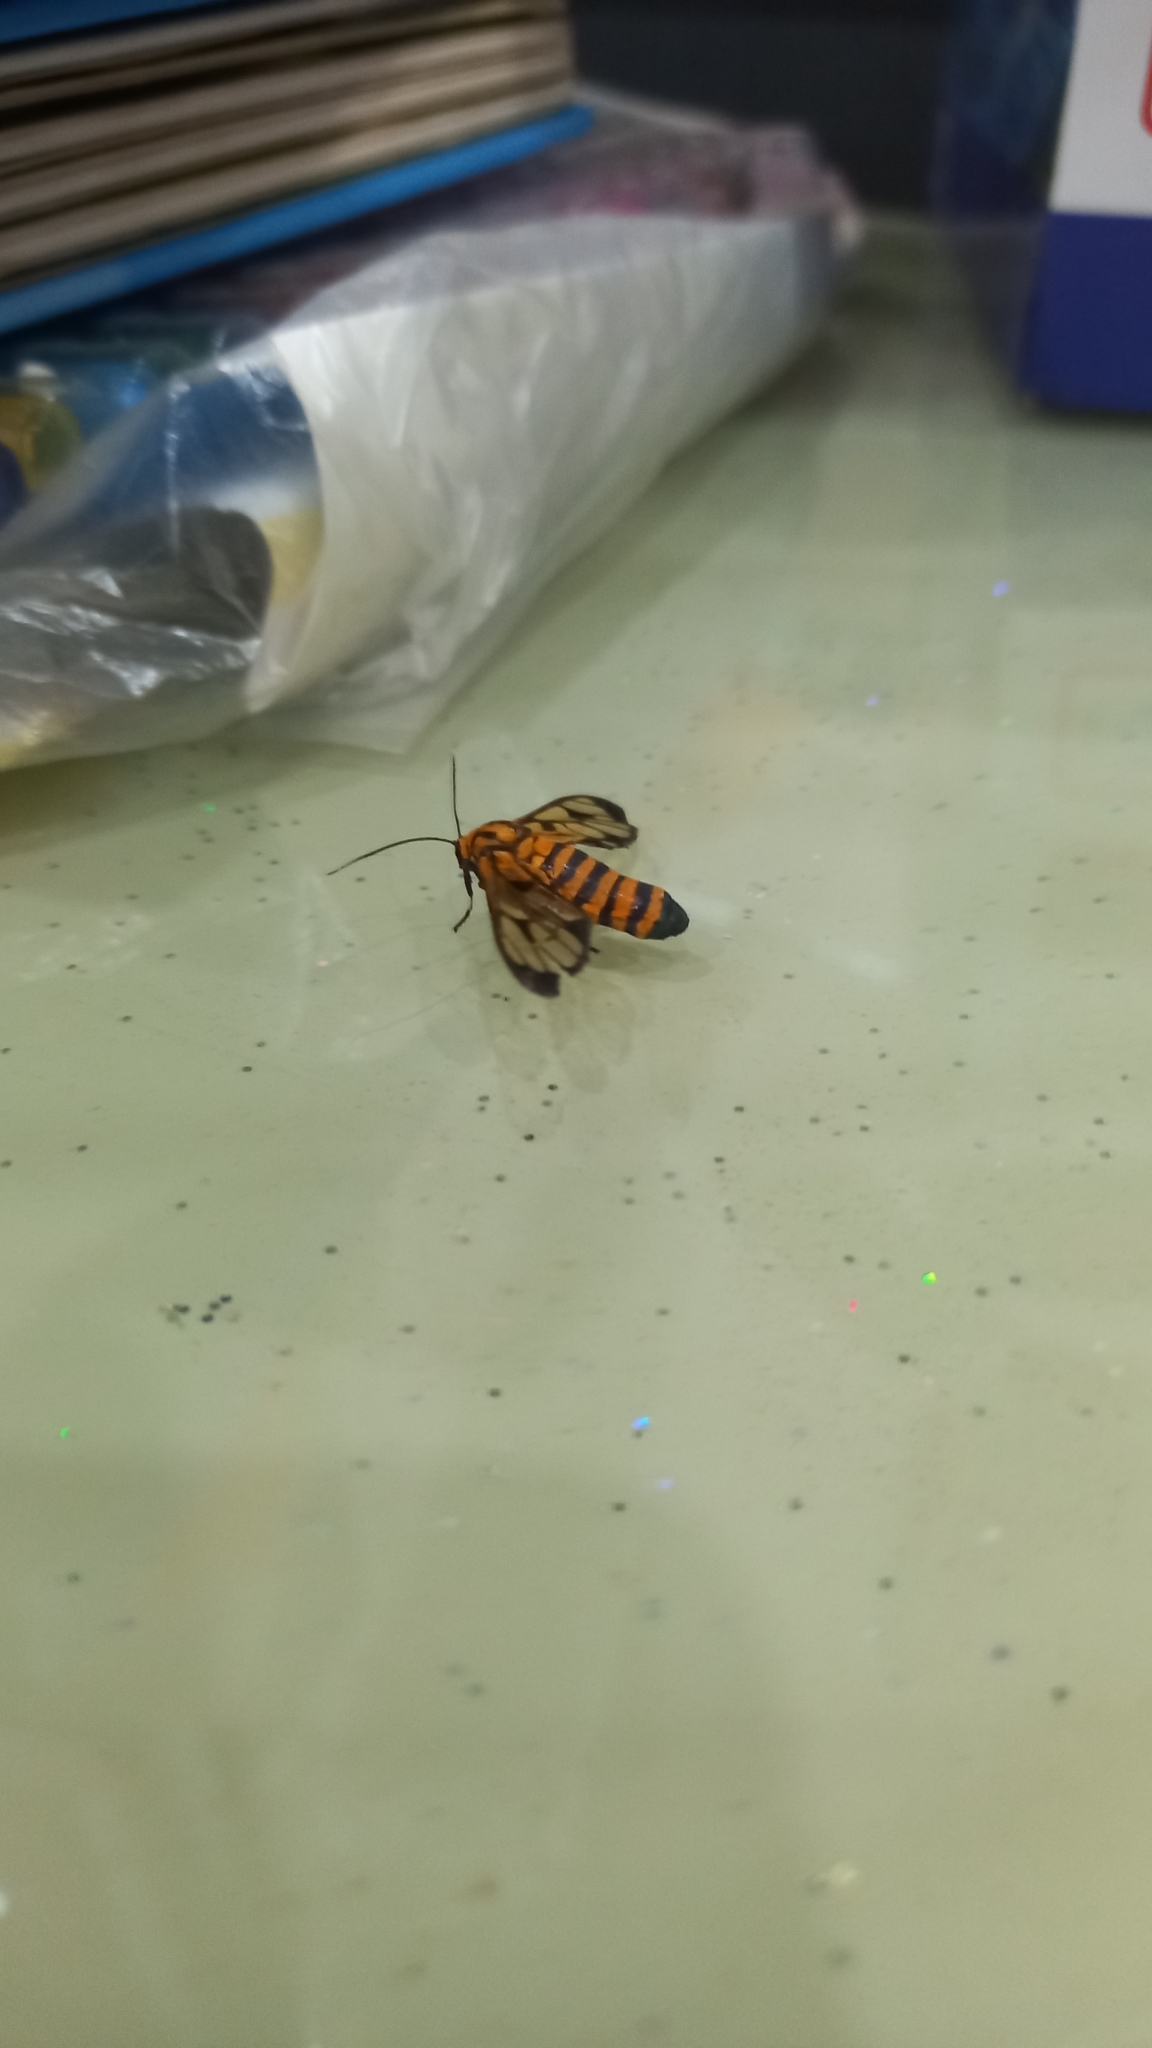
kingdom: Animalia
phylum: Arthropoda
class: Insecta
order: Lepidoptera
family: Erebidae
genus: Amata
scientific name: Amata grotei
